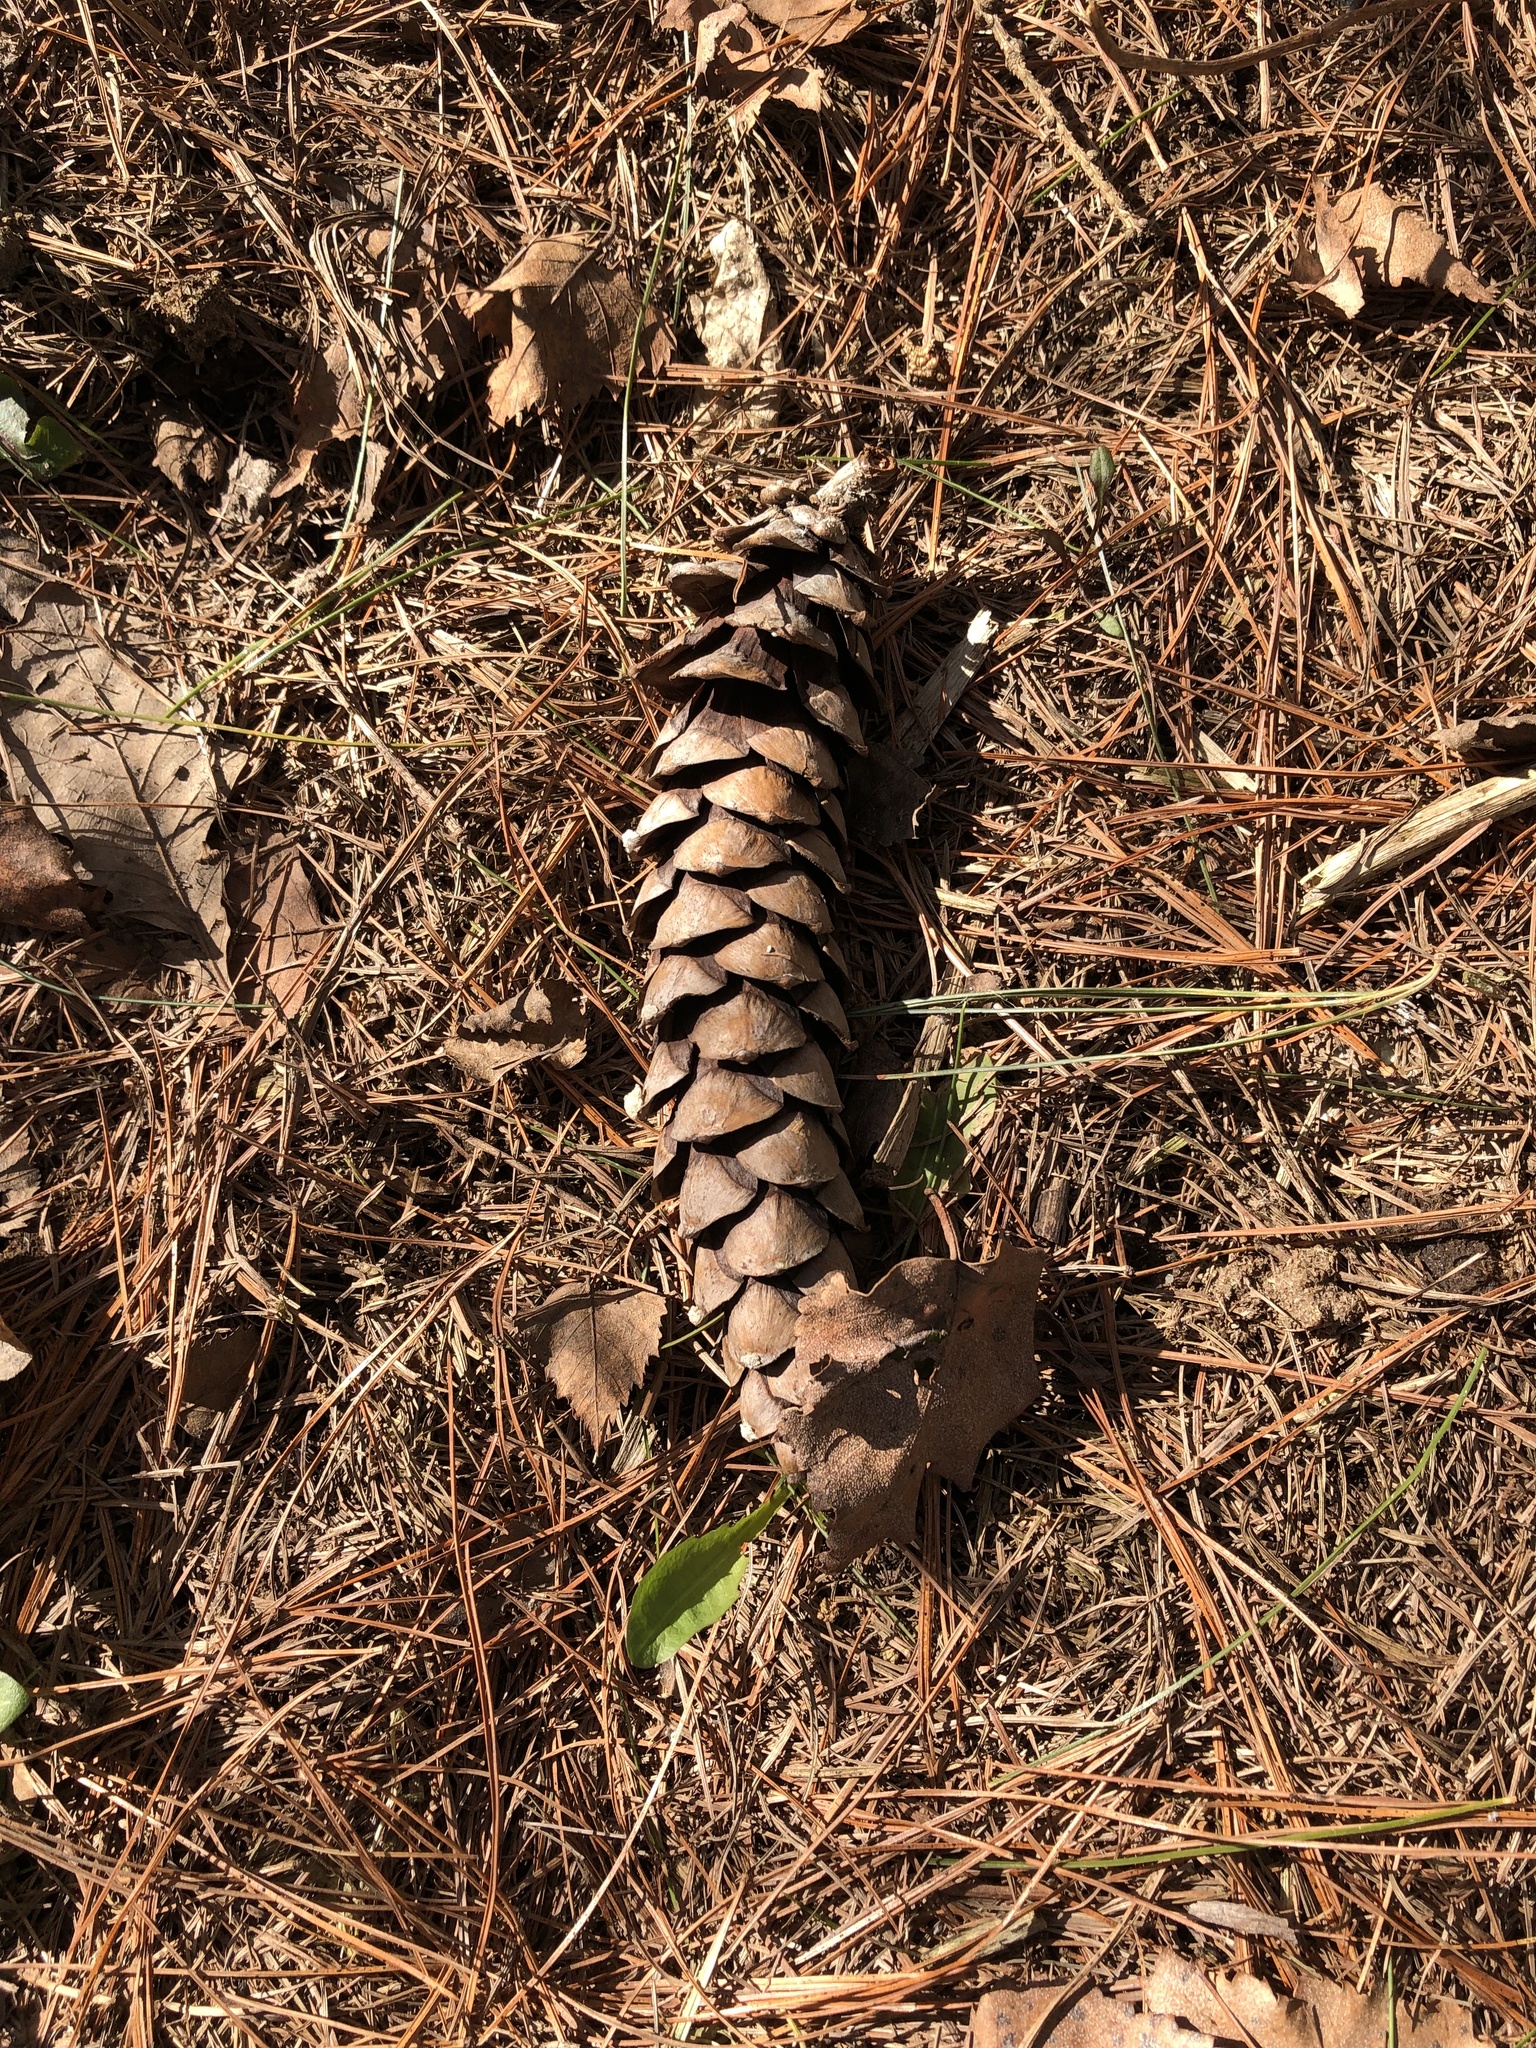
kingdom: Plantae
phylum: Tracheophyta
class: Pinopsida
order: Pinales
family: Pinaceae
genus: Pinus
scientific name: Pinus strobus
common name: Weymouth pine
